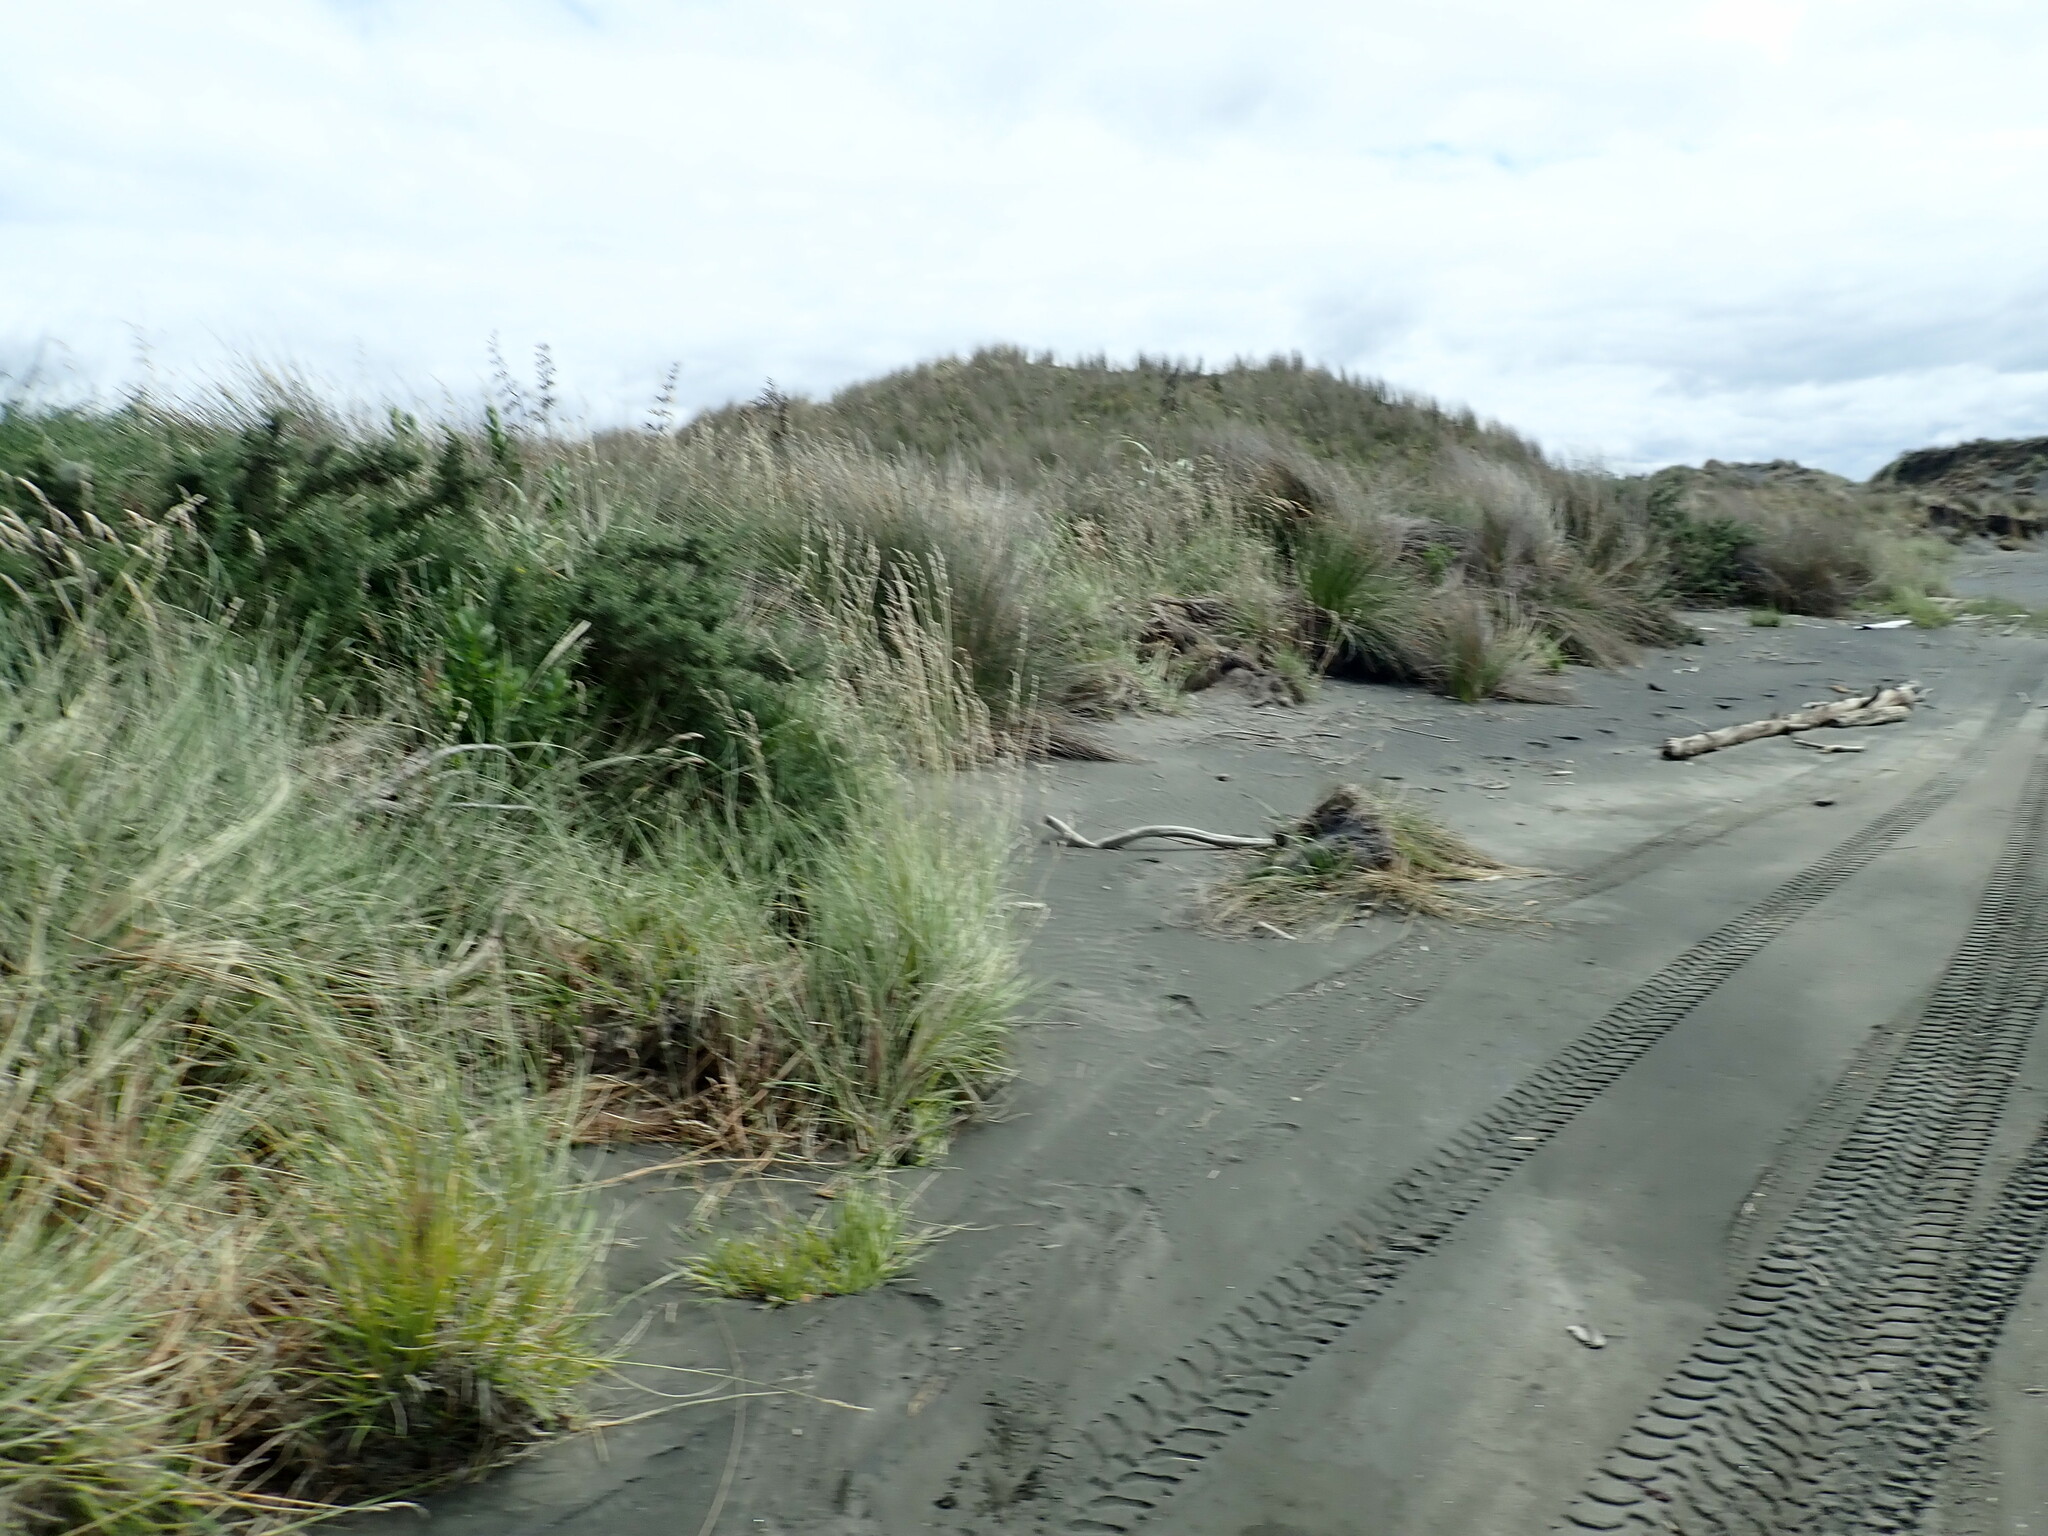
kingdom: Plantae
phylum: Tracheophyta
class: Magnoliopsida
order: Fabales
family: Fabaceae
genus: Ulex
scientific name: Ulex europaeus
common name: Common gorse
